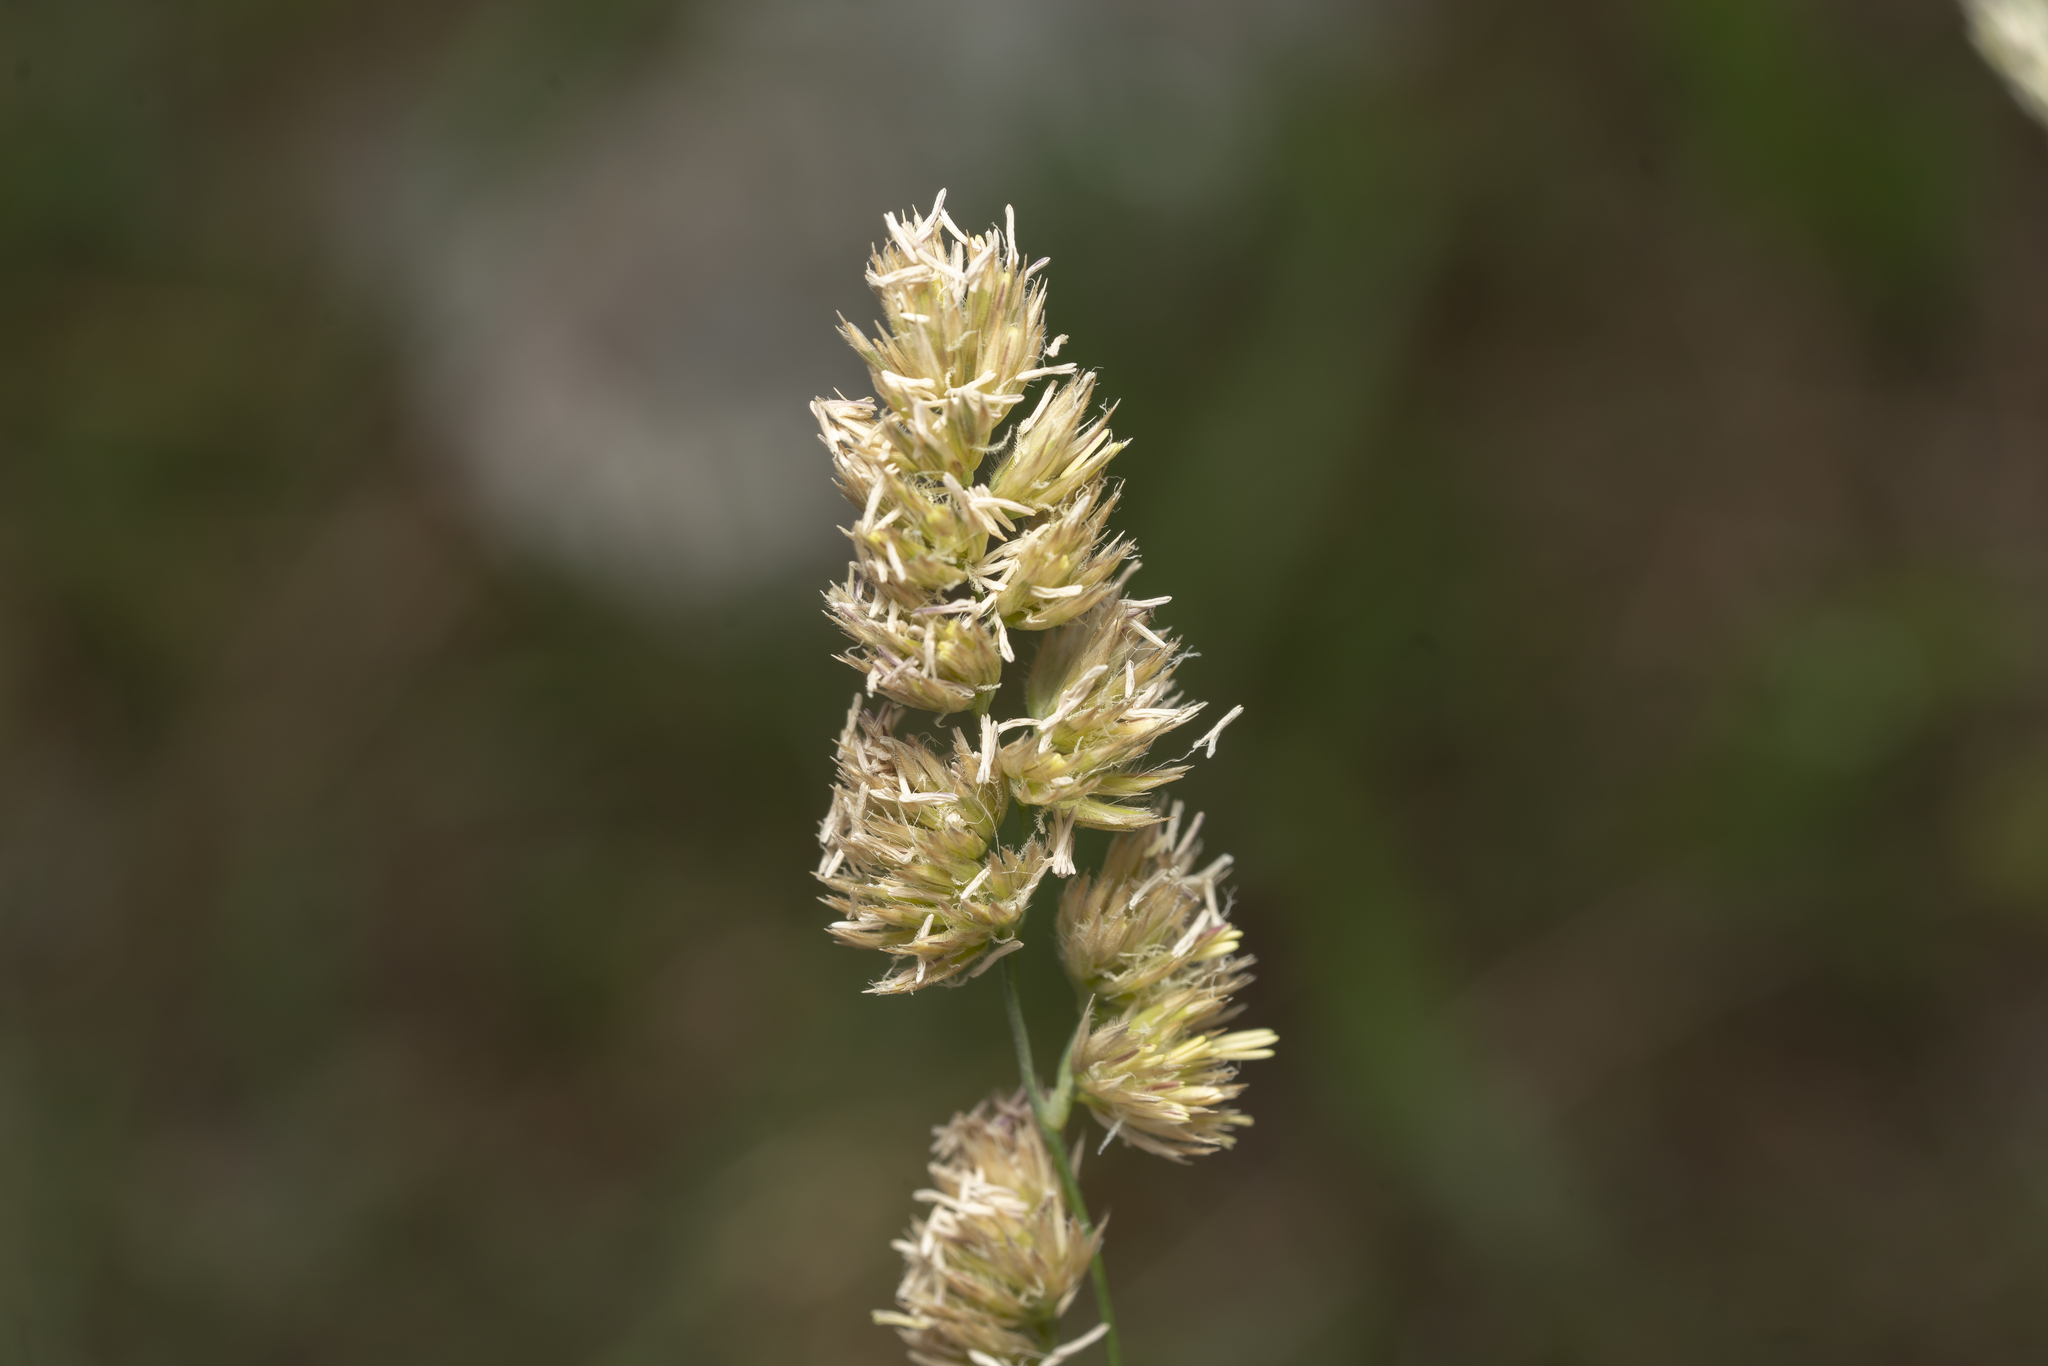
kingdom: Plantae
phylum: Tracheophyta
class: Liliopsida
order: Poales
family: Poaceae
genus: Dactylis
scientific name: Dactylis glomerata
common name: Orchardgrass
